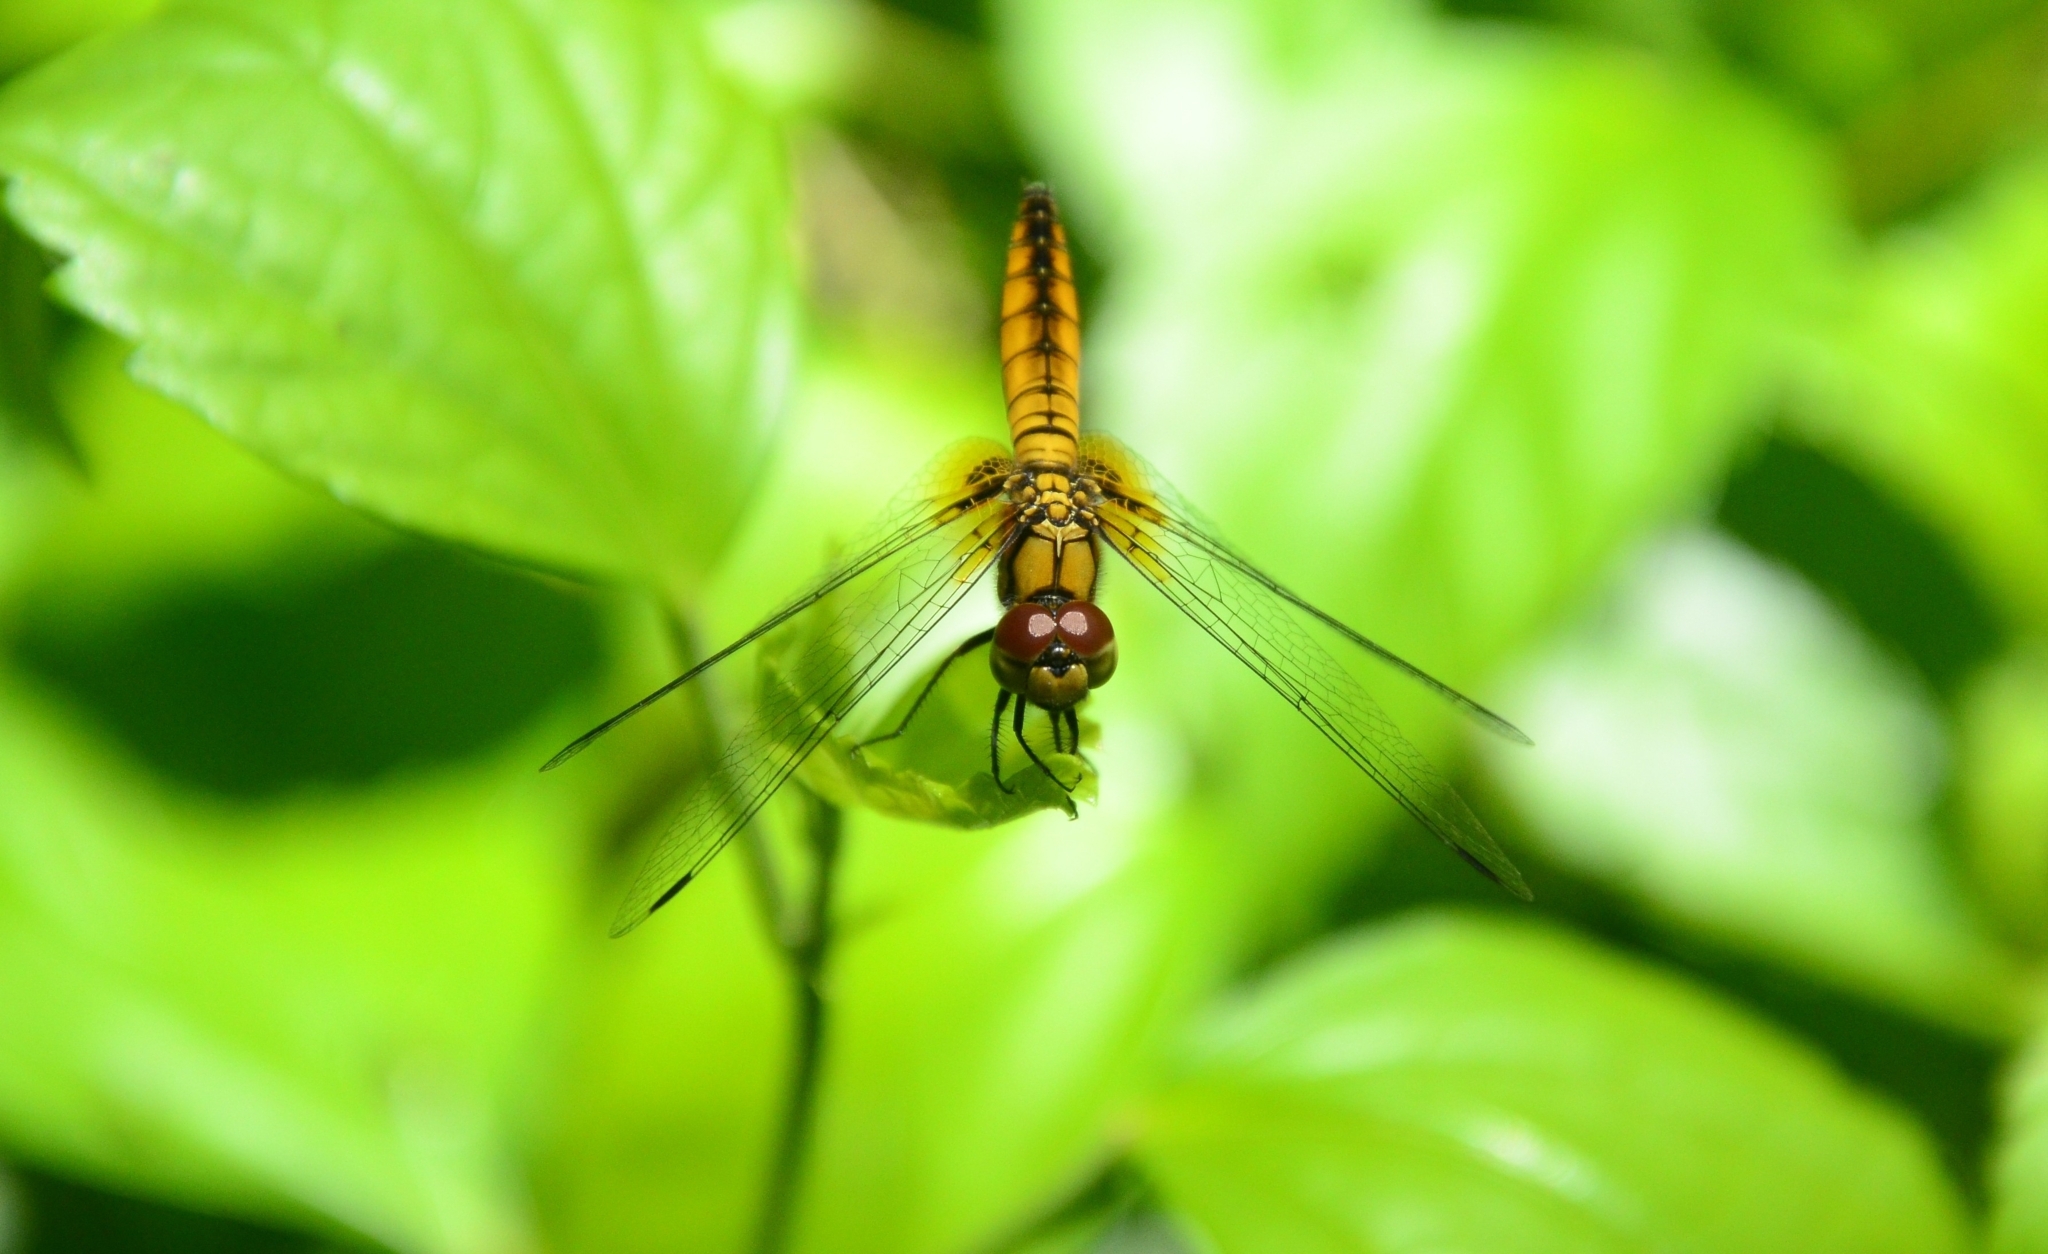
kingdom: Animalia
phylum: Arthropoda
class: Insecta
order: Odonata
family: Libellulidae
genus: Aethriamanta
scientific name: Aethriamanta brevipennis
